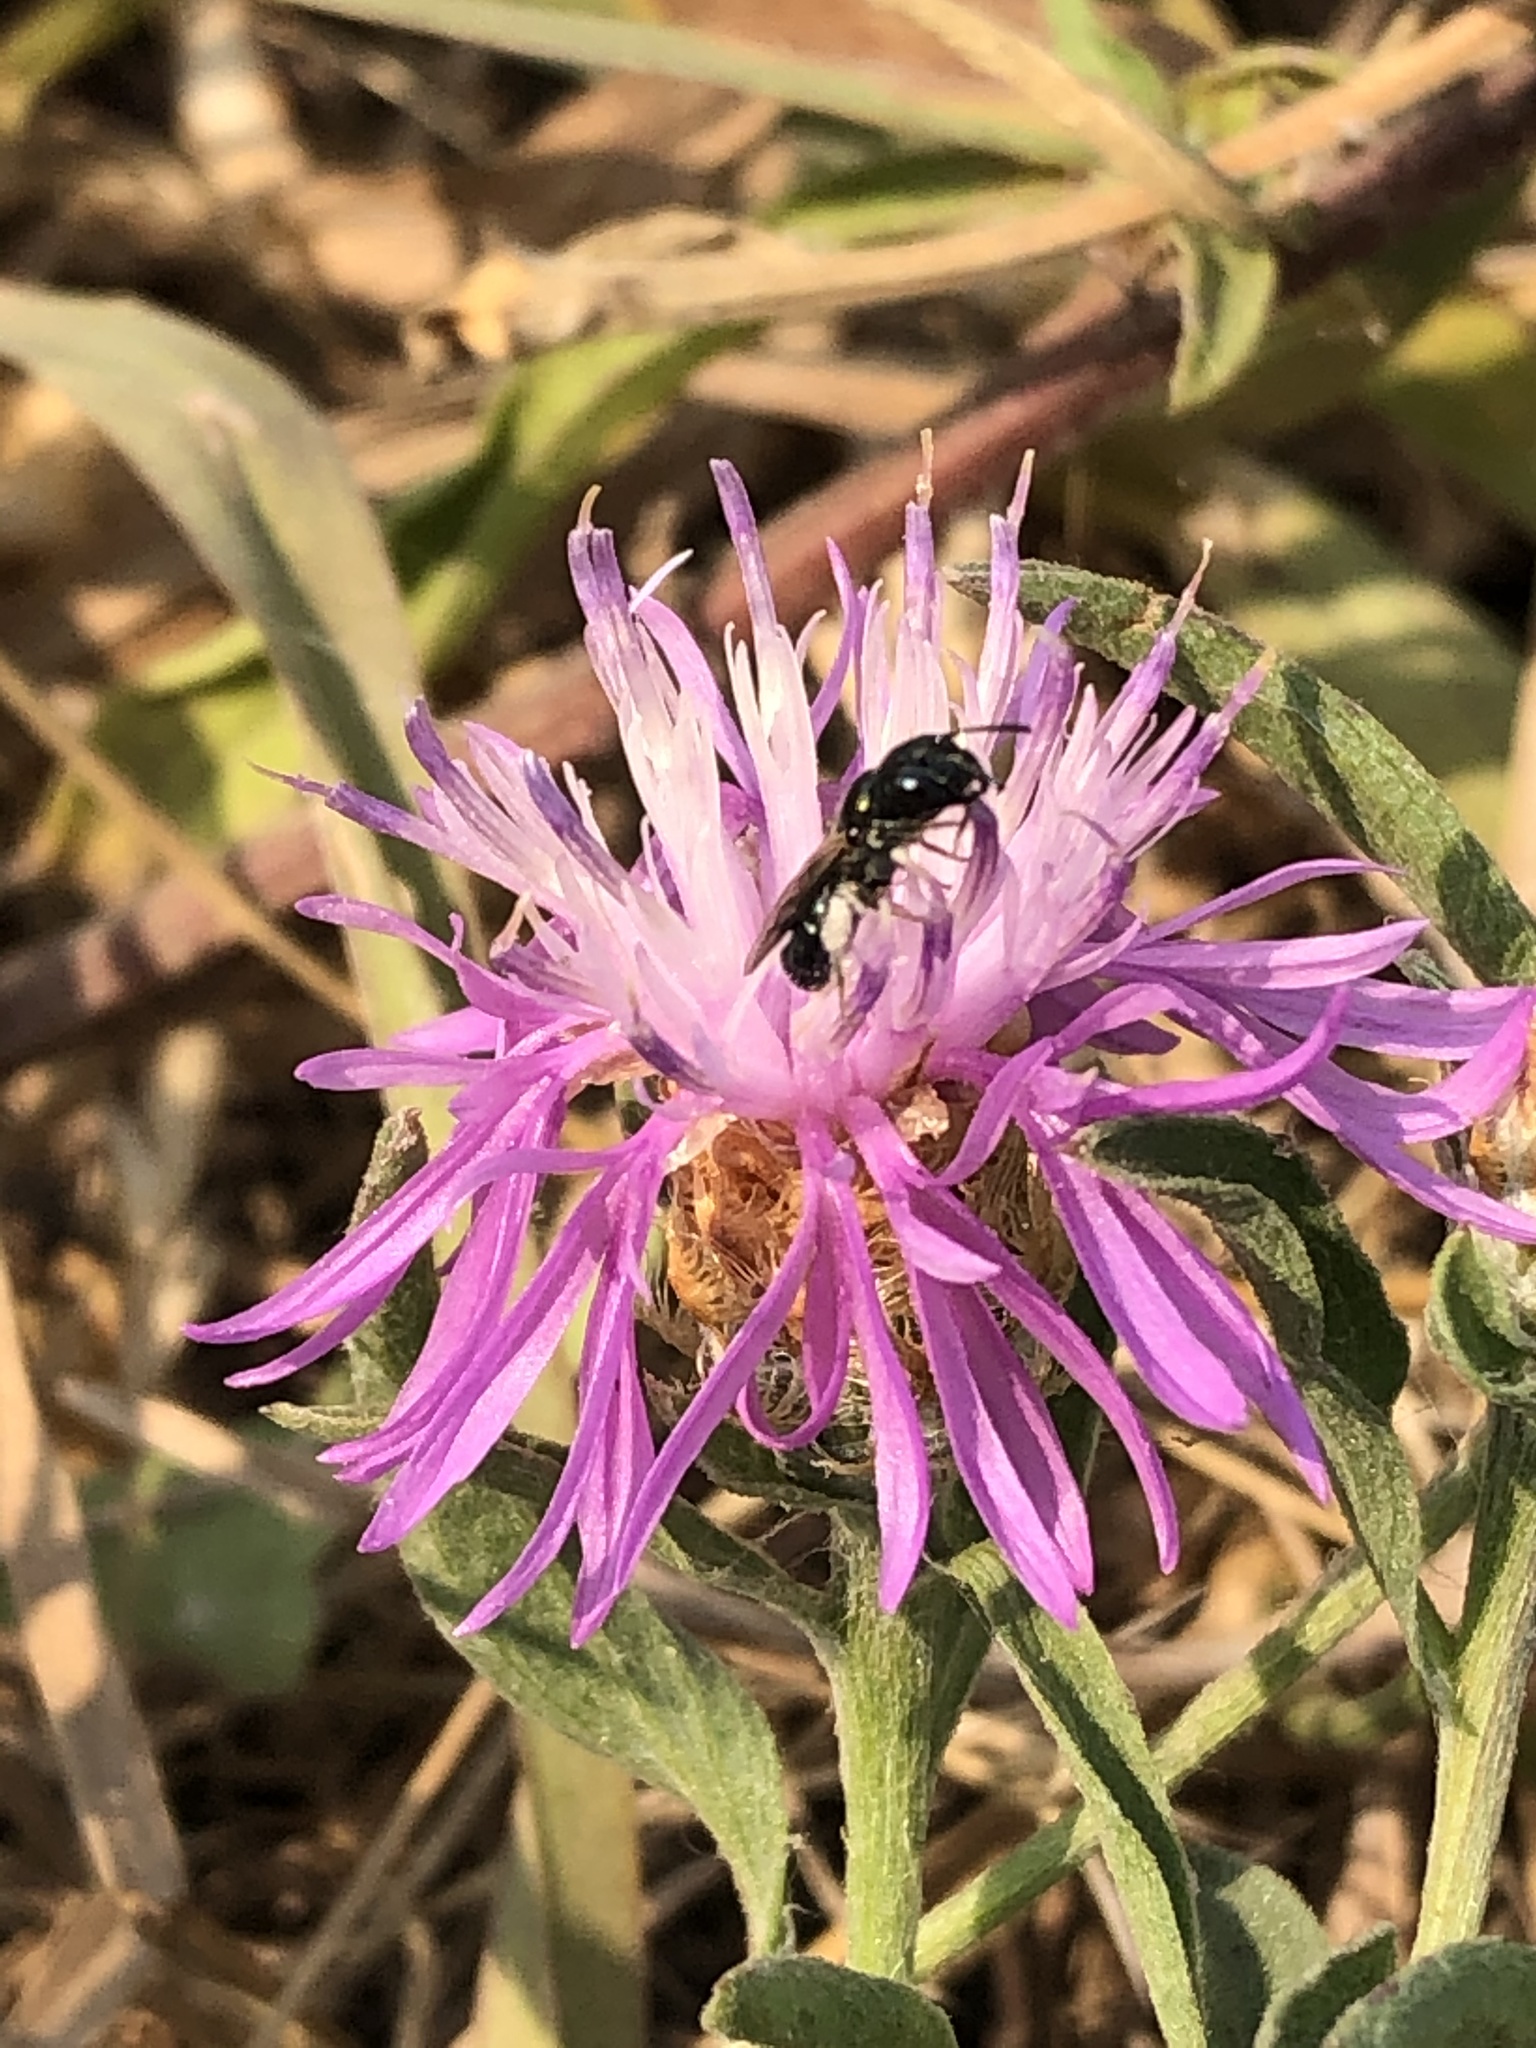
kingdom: Plantae
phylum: Tracheophyta
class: Magnoliopsida
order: Asterales
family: Asteraceae
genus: Centaurea
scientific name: Centaurea moncktonii
